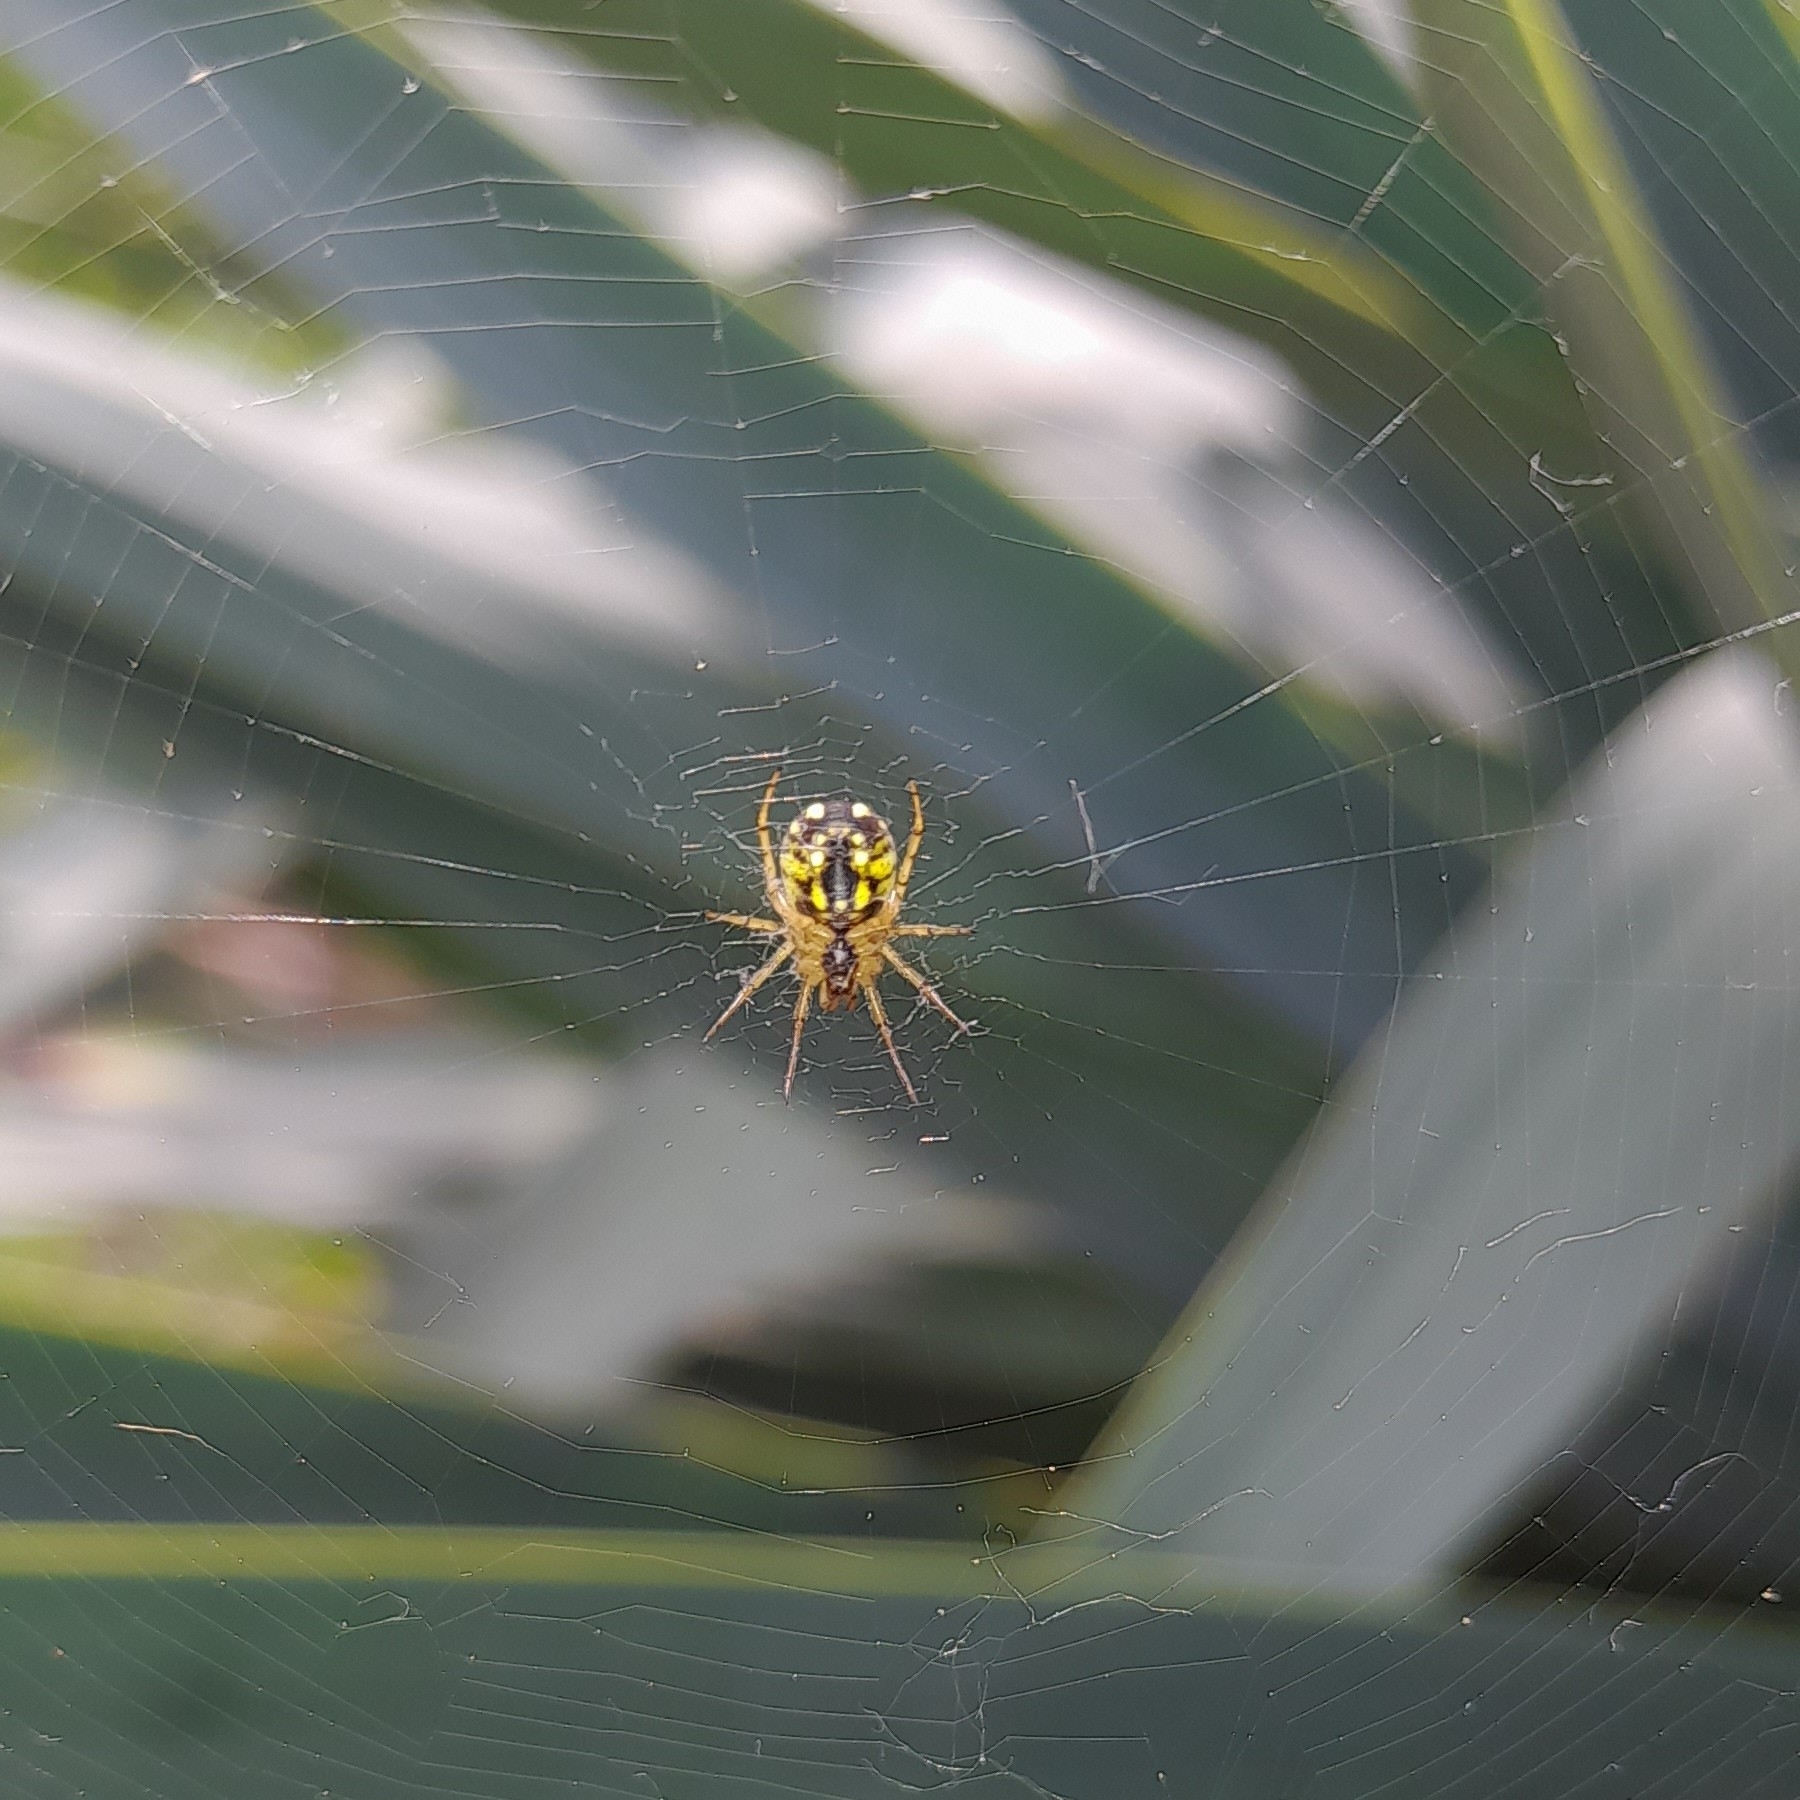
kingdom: Animalia
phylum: Arthropoda
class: Arachnida
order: Araneae
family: Araneidae
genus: Mangora
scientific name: Mangora acalypha
